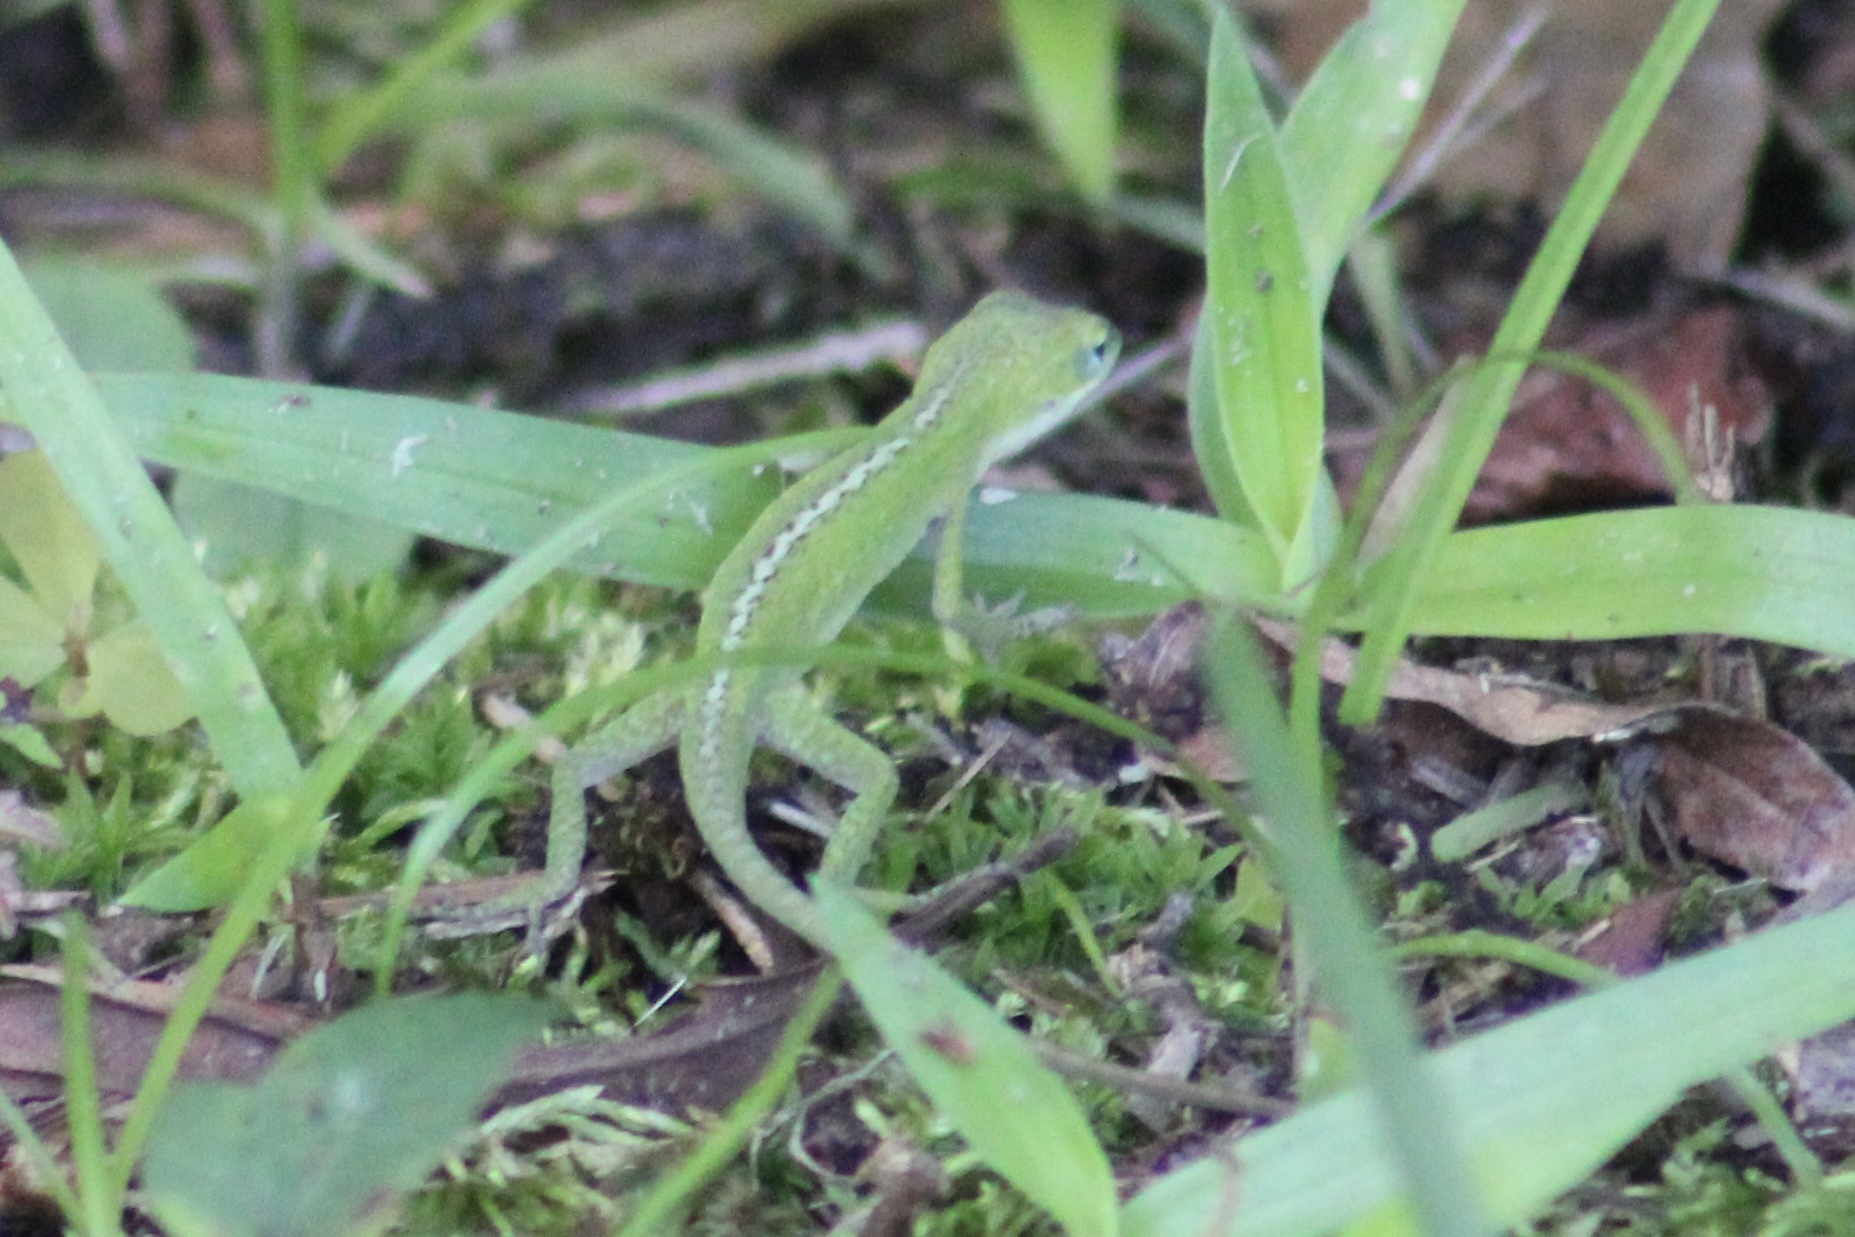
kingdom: Animalia
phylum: Chordata
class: Squamata
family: Dactyloidae
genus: Anolis
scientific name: Anolis carolinensis
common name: Green anole
